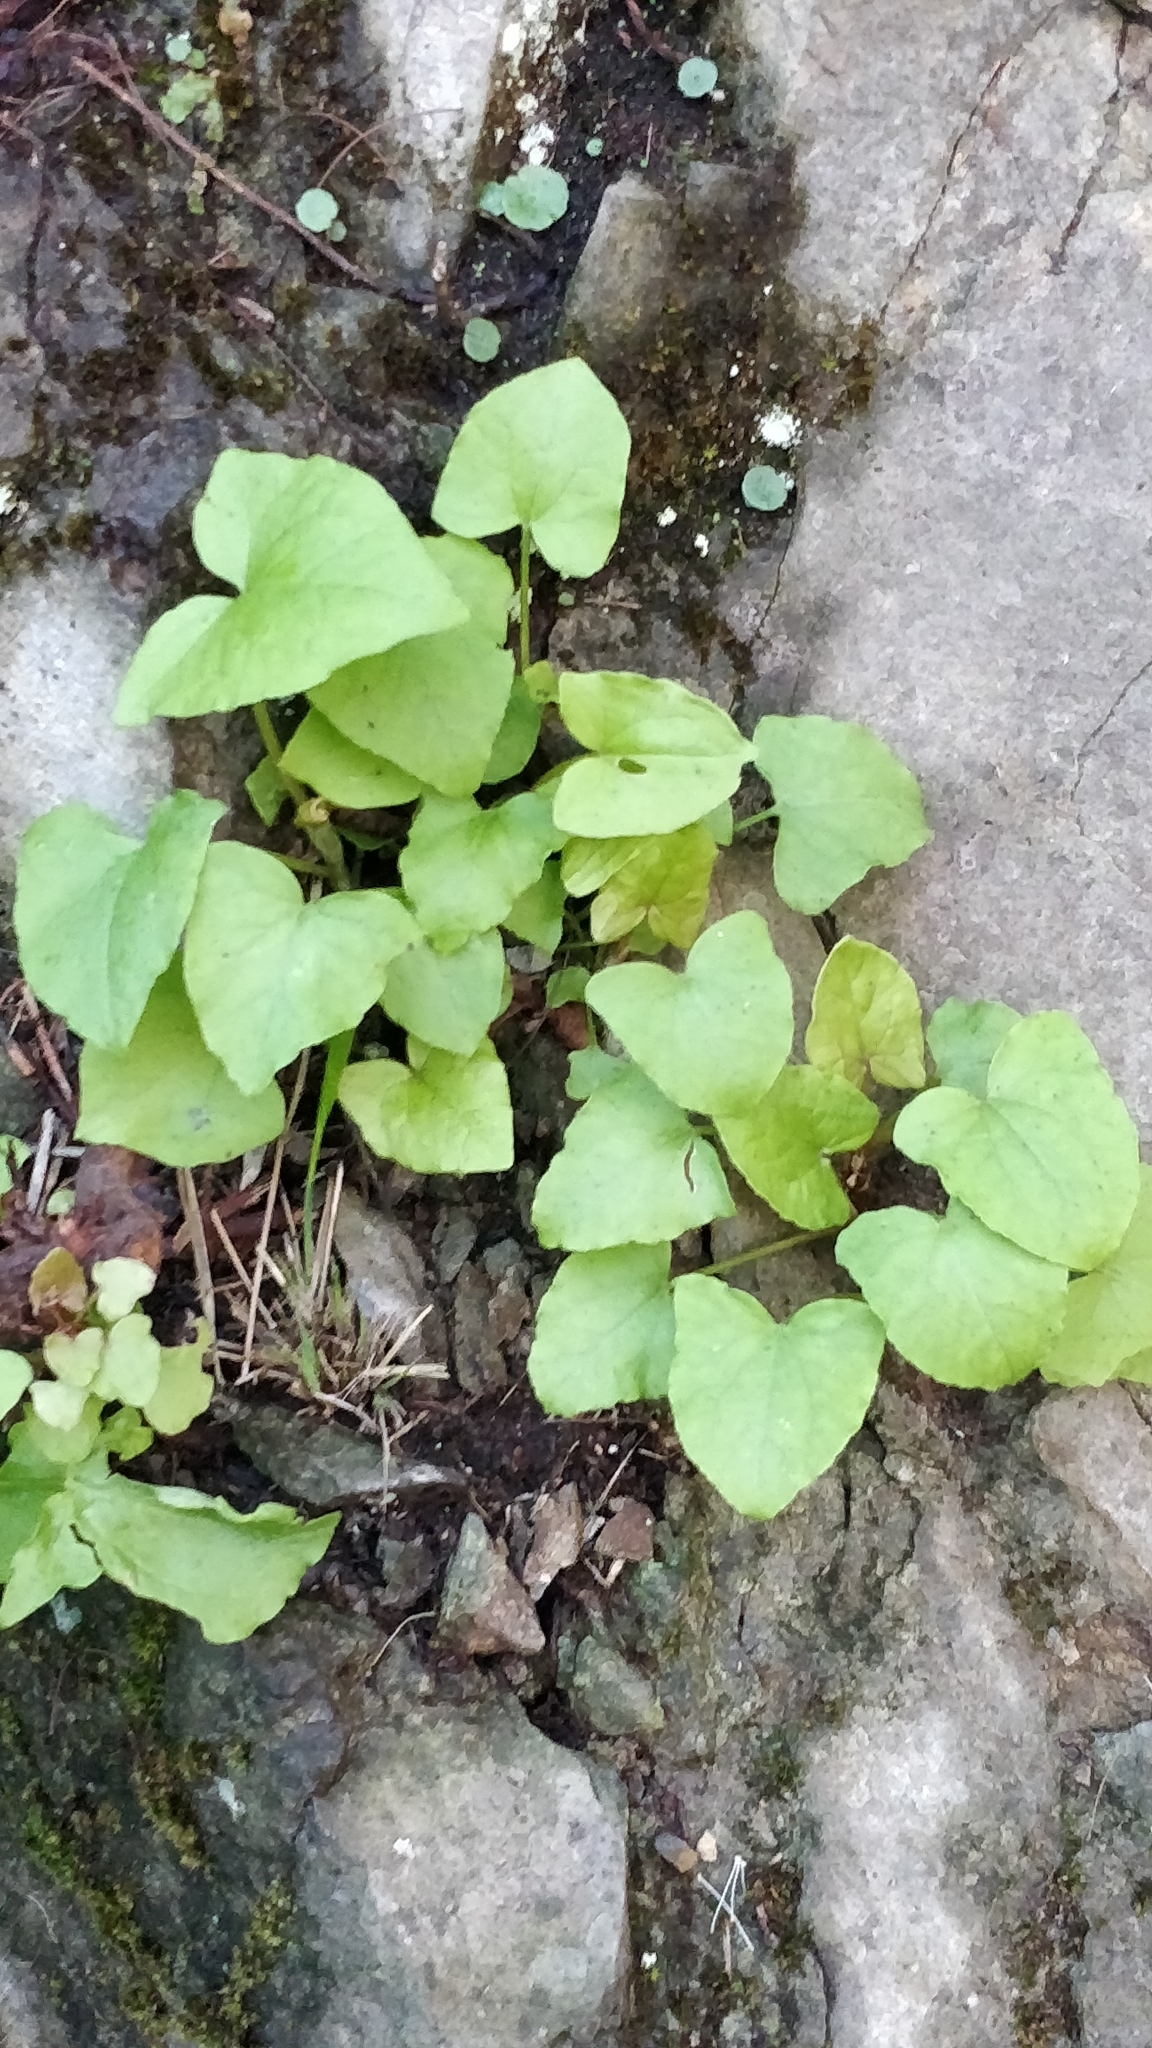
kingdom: Plantae
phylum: Tracheophyta
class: Magnoliopsida
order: Caryophyllales
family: Polygonaceae
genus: Rumex
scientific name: Rumex maderensis
